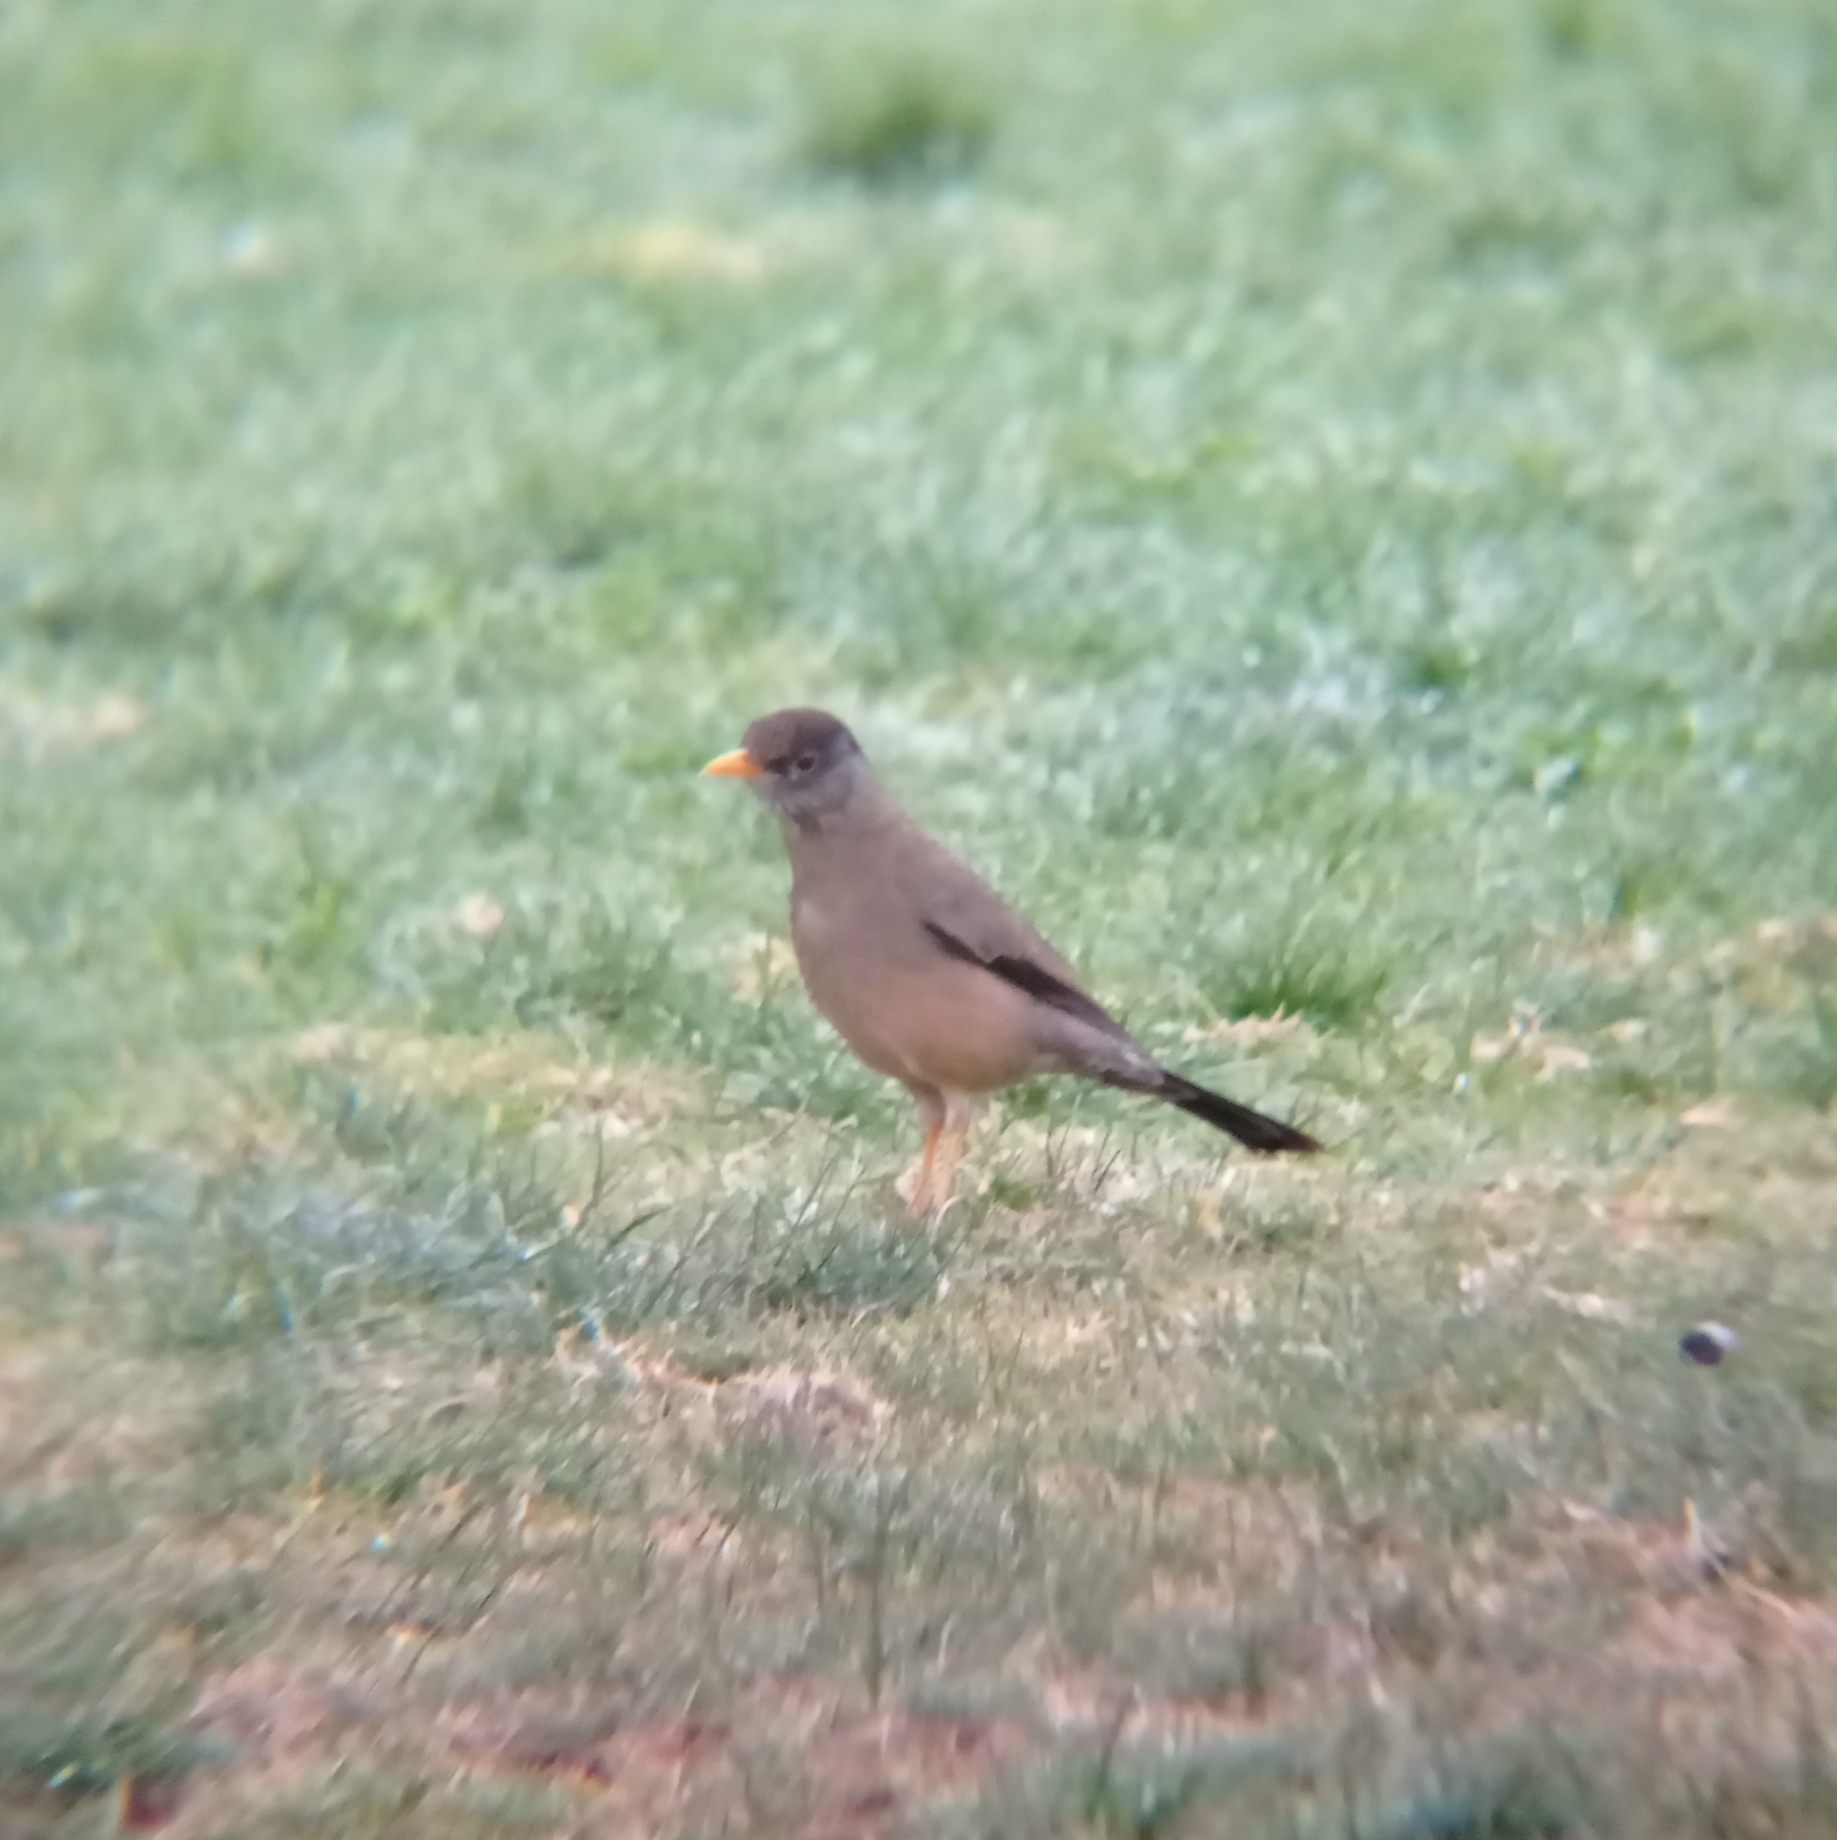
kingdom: Animalia
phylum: Chordata
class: Aves
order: Passeriformes
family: Turdidae
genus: Turdus
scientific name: Turdus falcklandii
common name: Austral thrush
